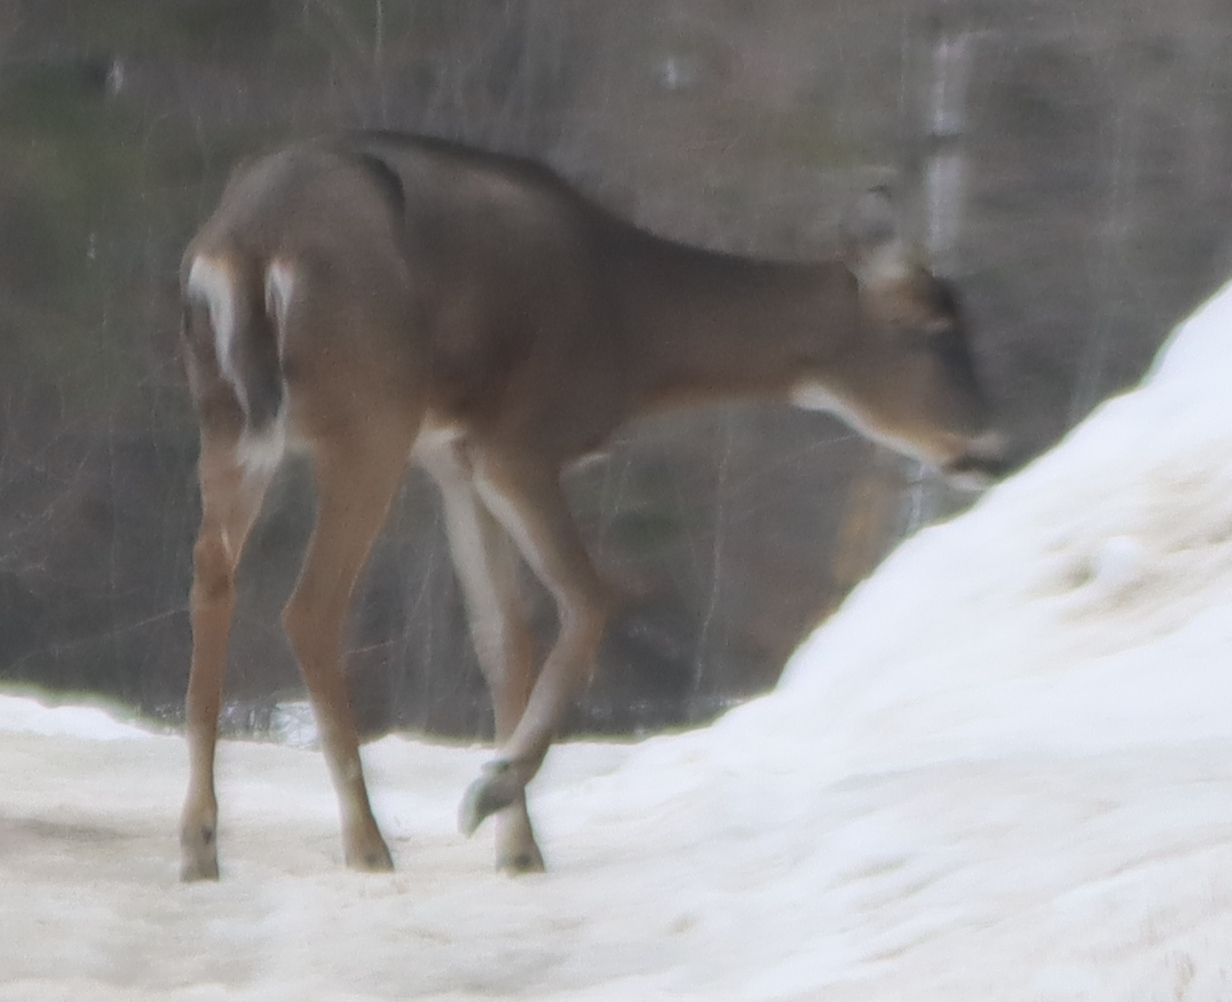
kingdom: Animalia
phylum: Chordata
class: Mammalia
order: Artiodactyla
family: Cervidae
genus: Odocoileus
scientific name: Odocoileus virginianus
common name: White-tailed deer
